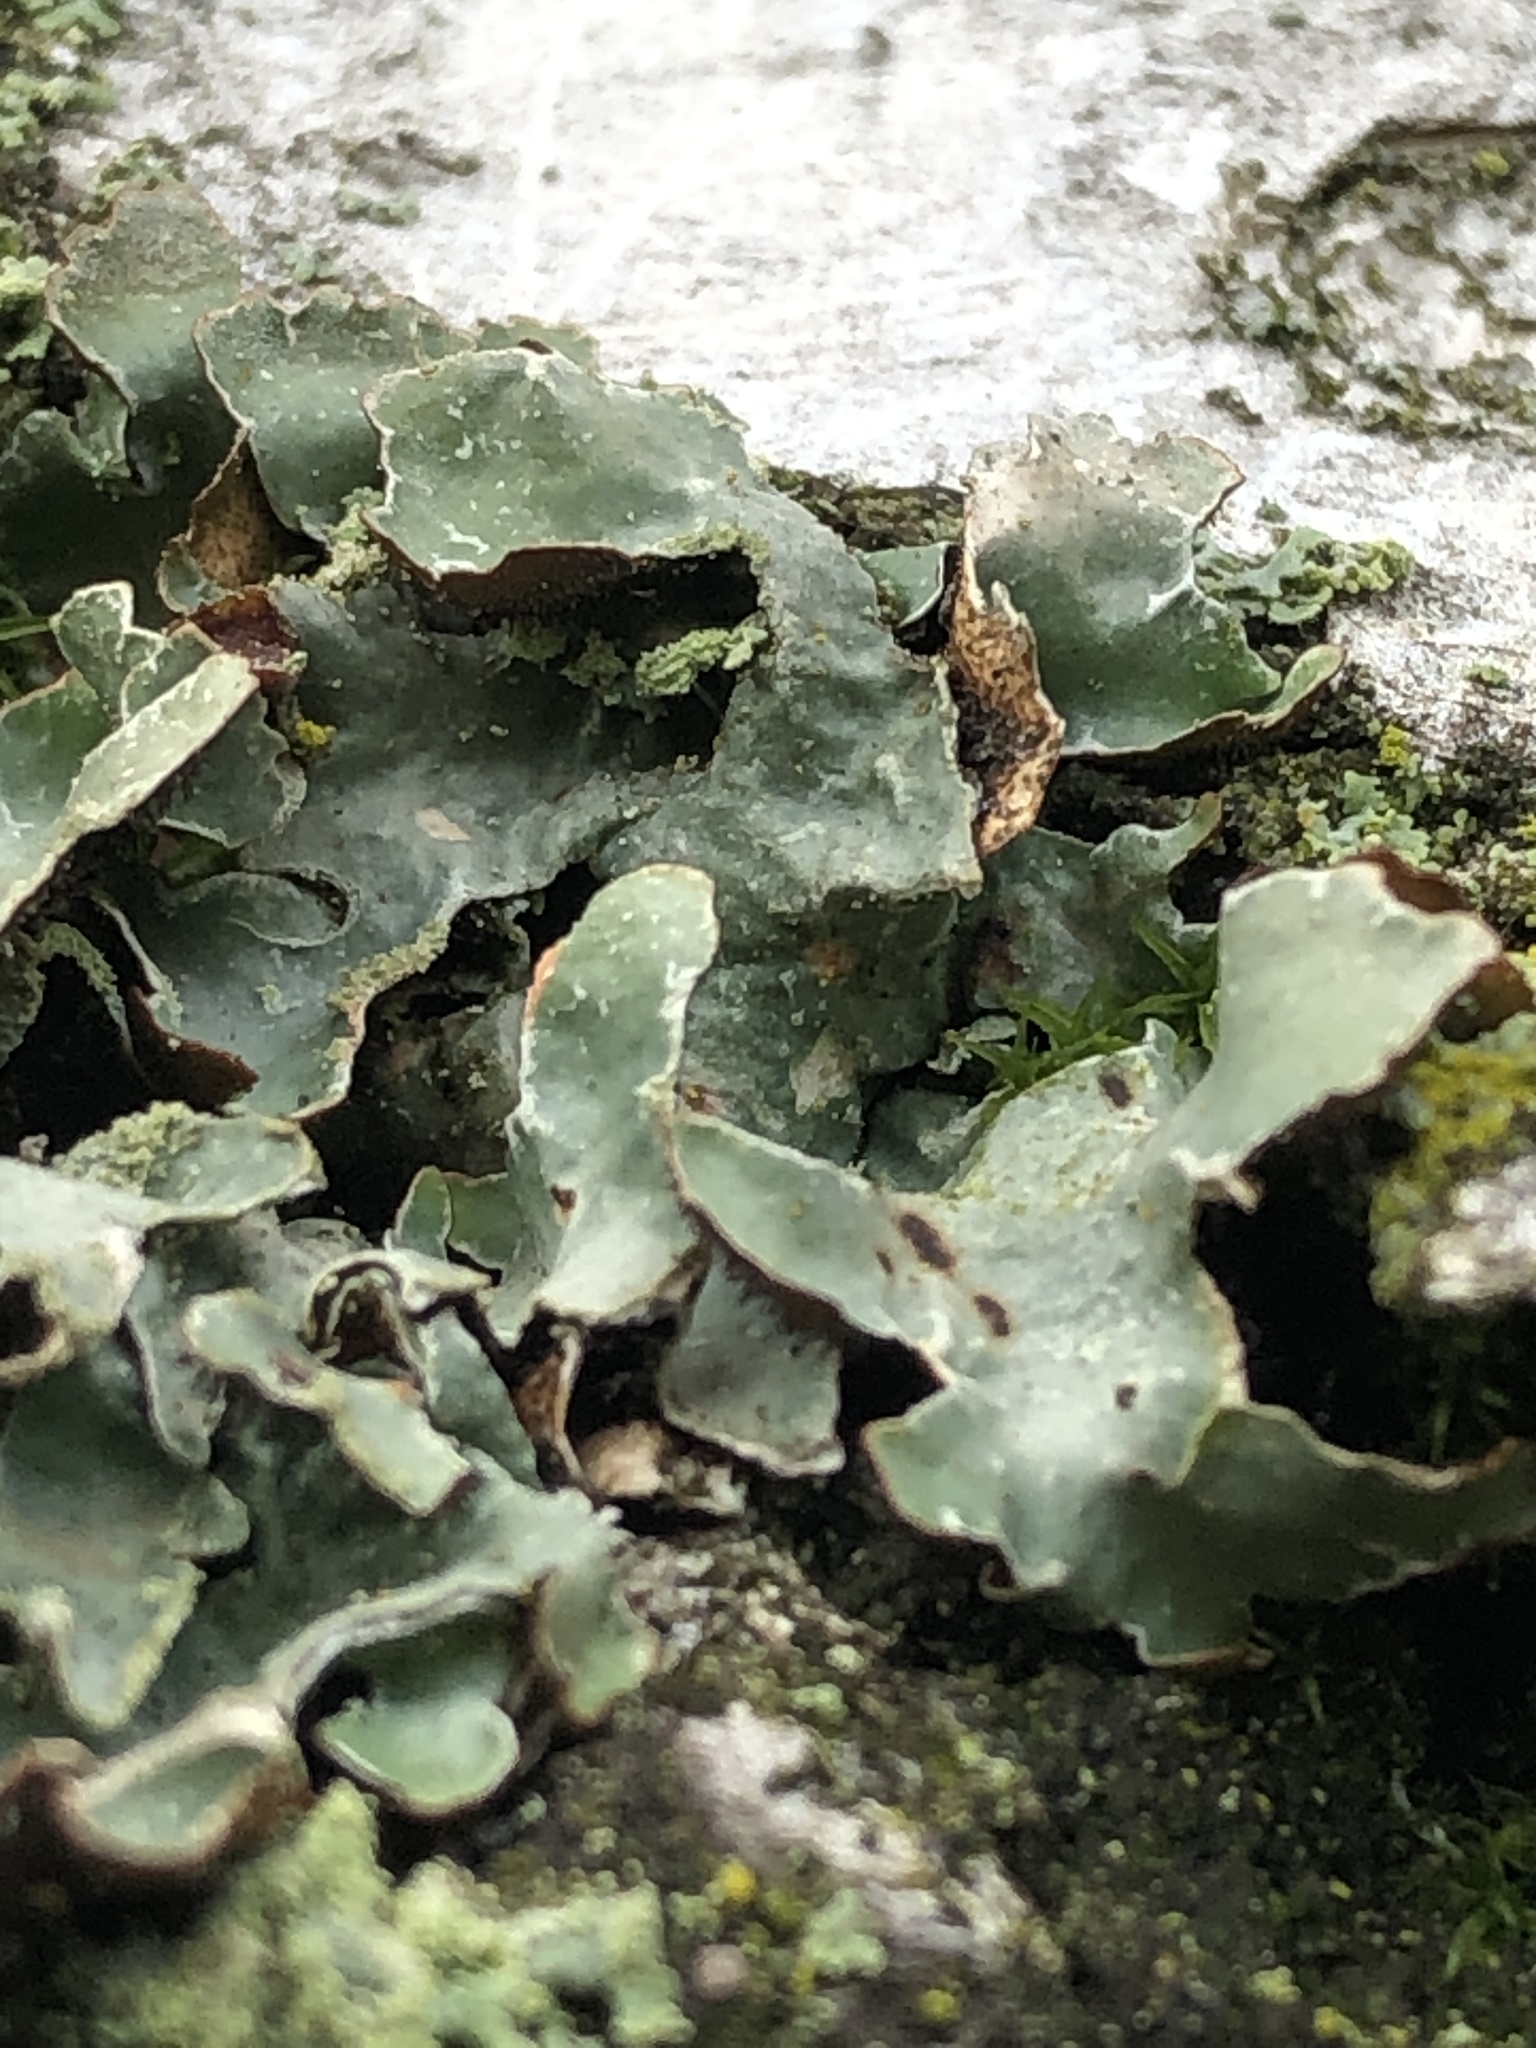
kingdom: Fungi
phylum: Ascomycota
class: Lecanoromycetes
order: Lecanorales
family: Parmeliaceae
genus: Parmelia
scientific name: Parmelia sulcata
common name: Netted shield lichen
